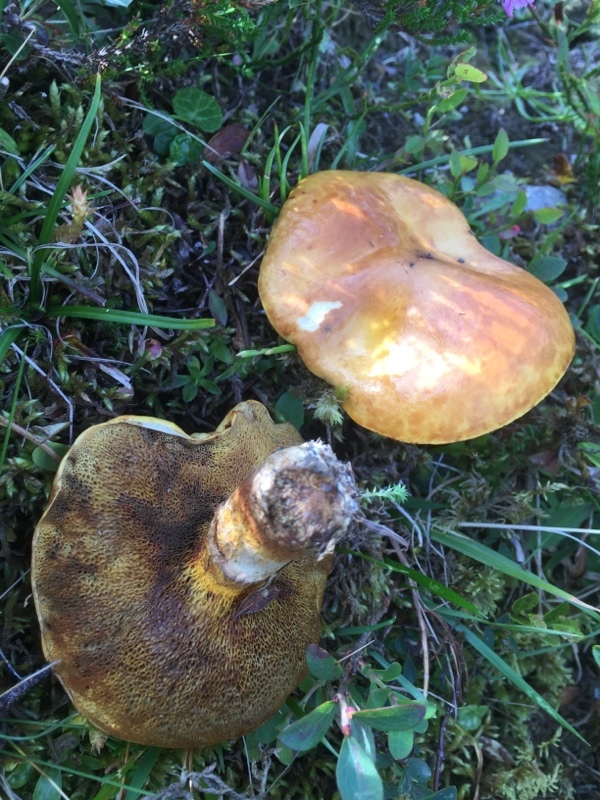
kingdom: Fungi
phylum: Basidiomycota
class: Agaricomycetes
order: Boletales
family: Suillaceae
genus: Suillus
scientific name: Suillus grevillei
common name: Larch bolete
